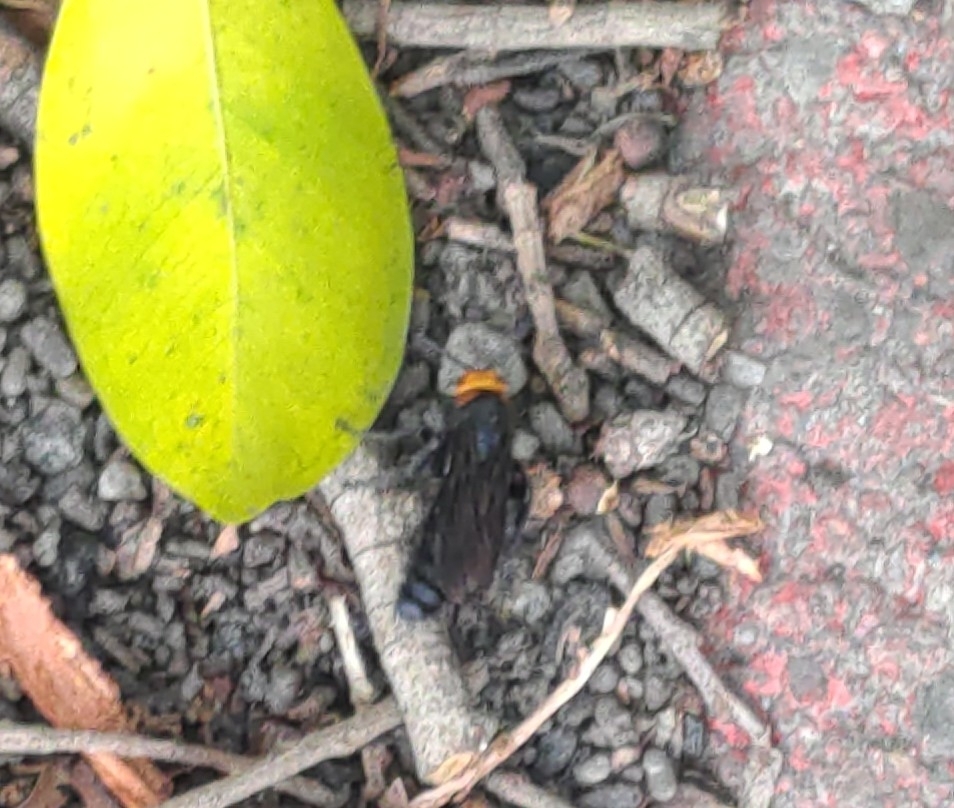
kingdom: Animalia
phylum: Arthropoda
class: Insecta
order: Hymenoptera
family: Scoliidae
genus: Scolia
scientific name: Scolia clypeata
